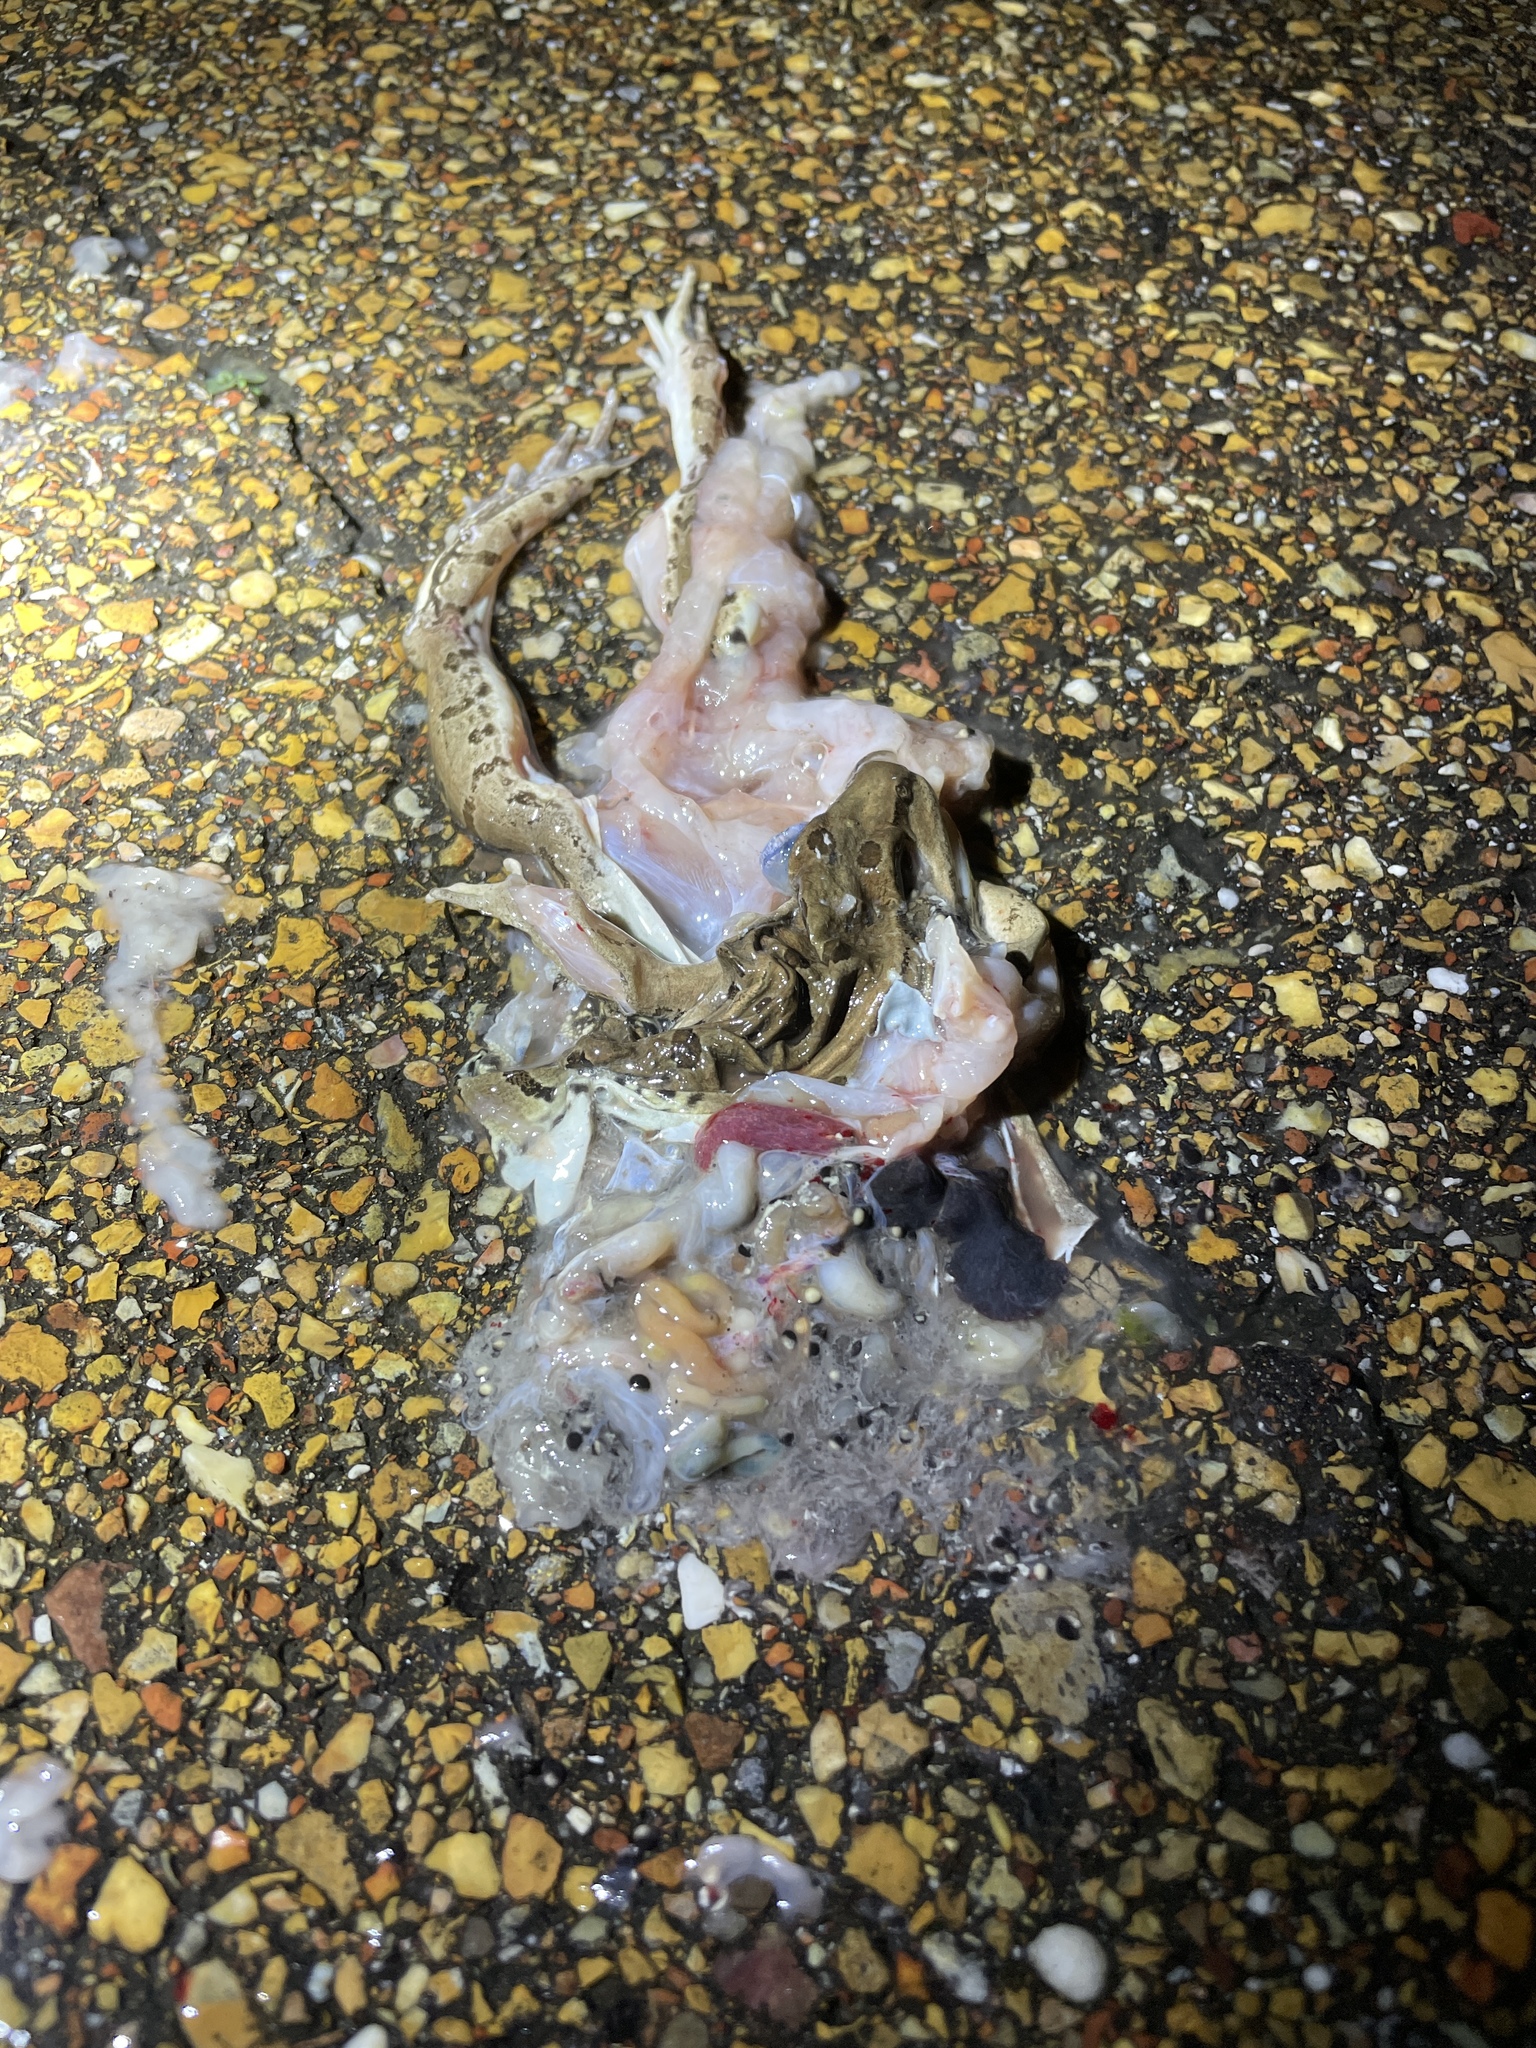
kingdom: Animalia
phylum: Chordata
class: Amphibia
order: Anura
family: Ranidae
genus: Lithobates
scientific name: Lithobates sphenocephalus
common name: Southern leopard frog
